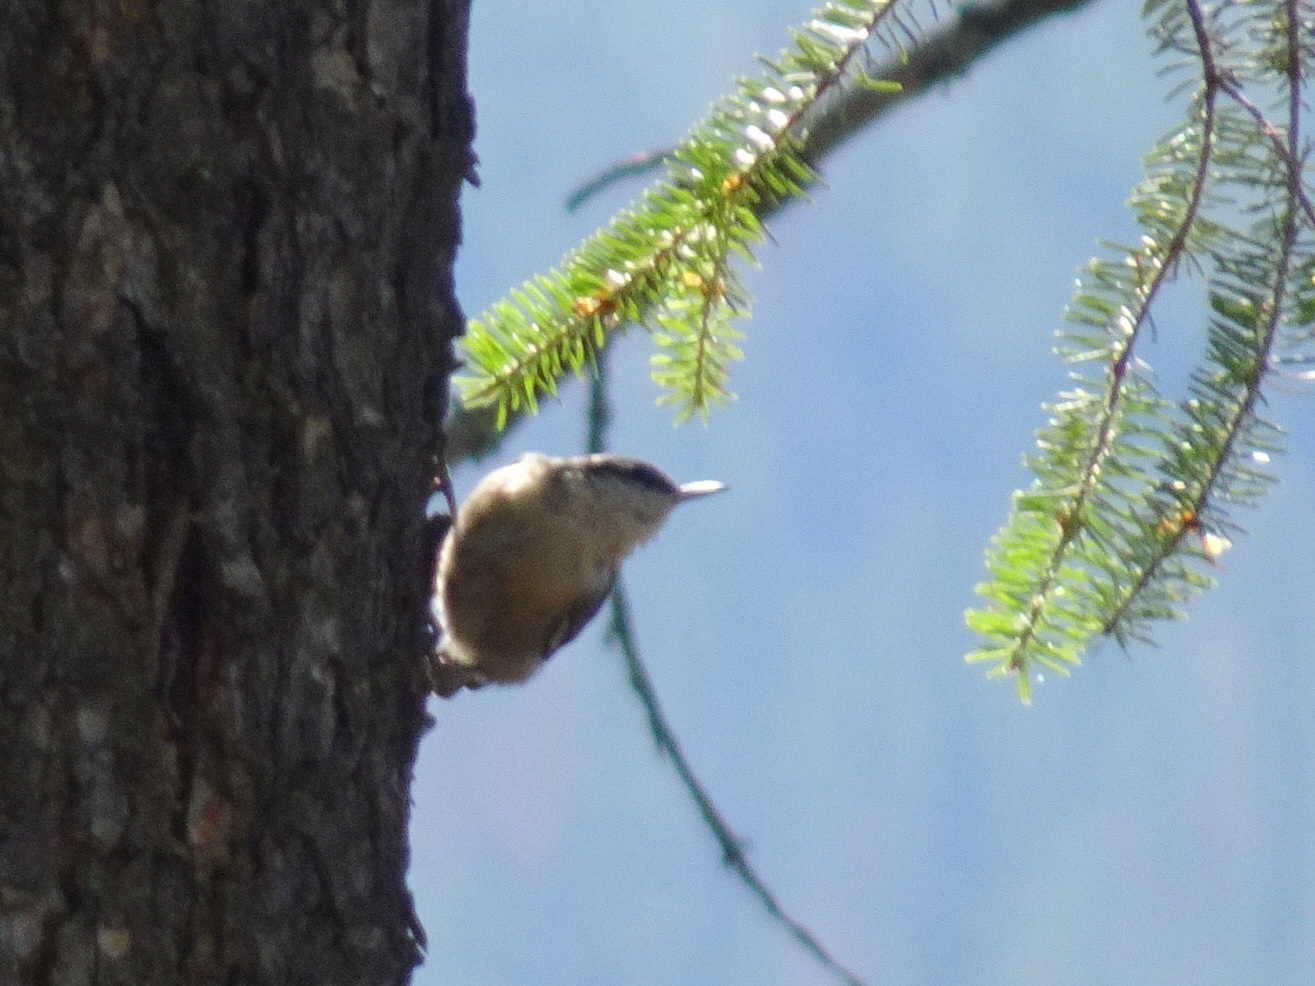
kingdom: Animalia
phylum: Chordata
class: Aves
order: Passeriformes
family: Sittidae
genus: Sitta
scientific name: Sitta pygmaea
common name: Pygmy nuthatch
